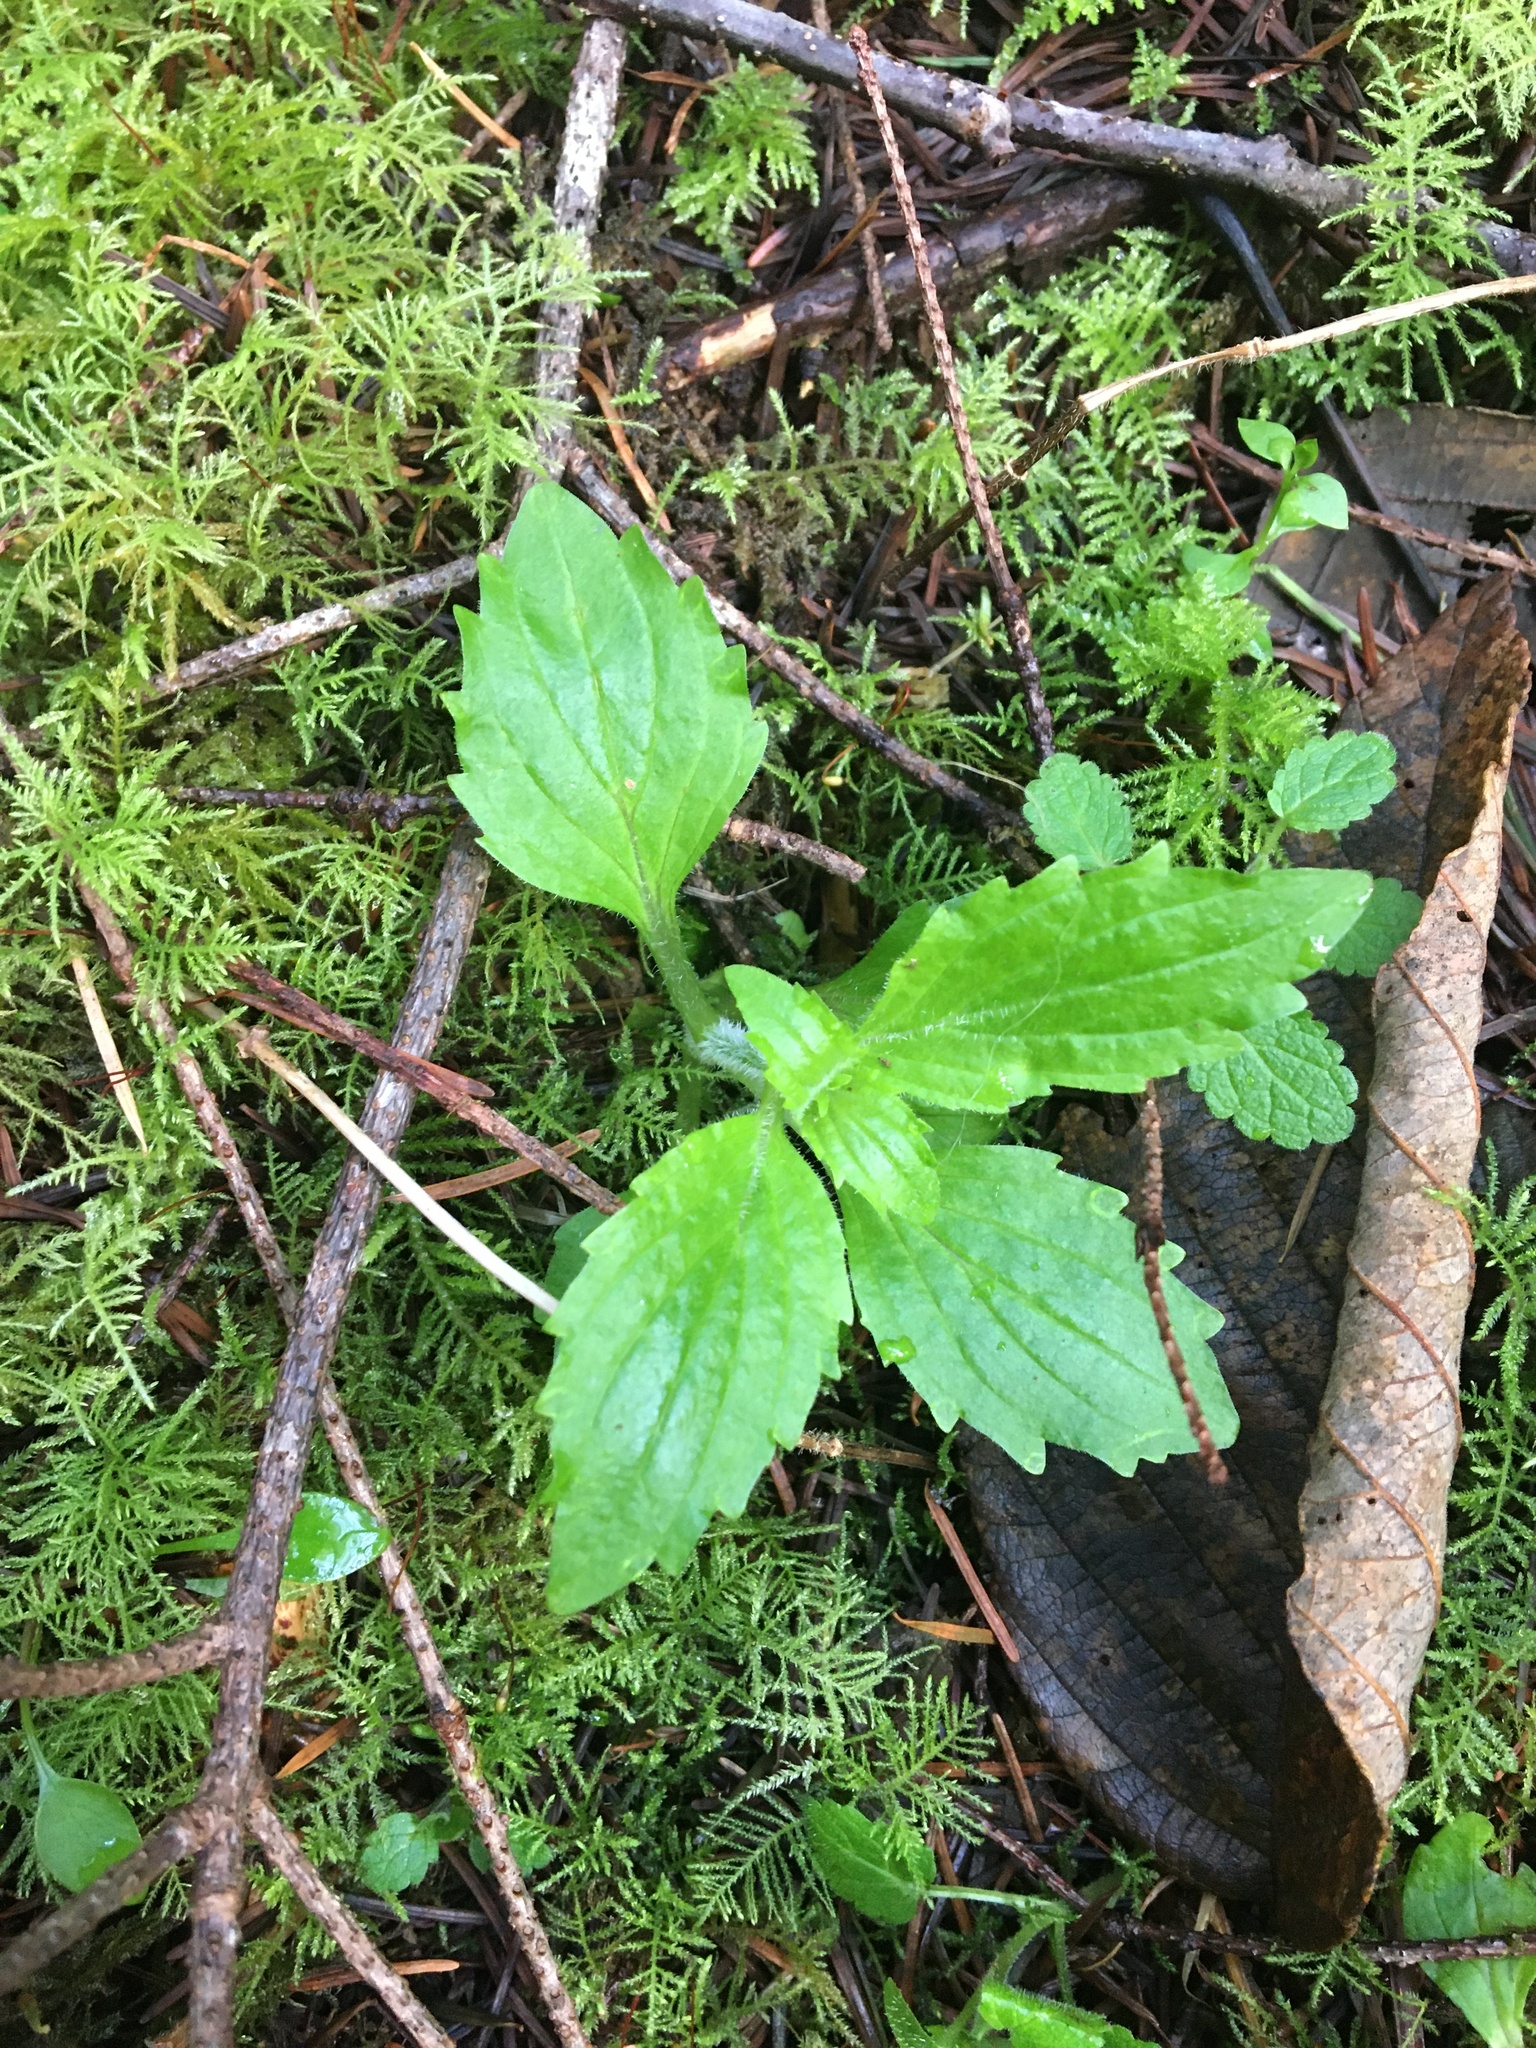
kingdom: Plantae
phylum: Tracheophyta
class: Magnoliopsida
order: Lamiales
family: Phrymaceae
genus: Erythranthe
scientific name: Erythranthe dentata
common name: Coastal monkeyflower
